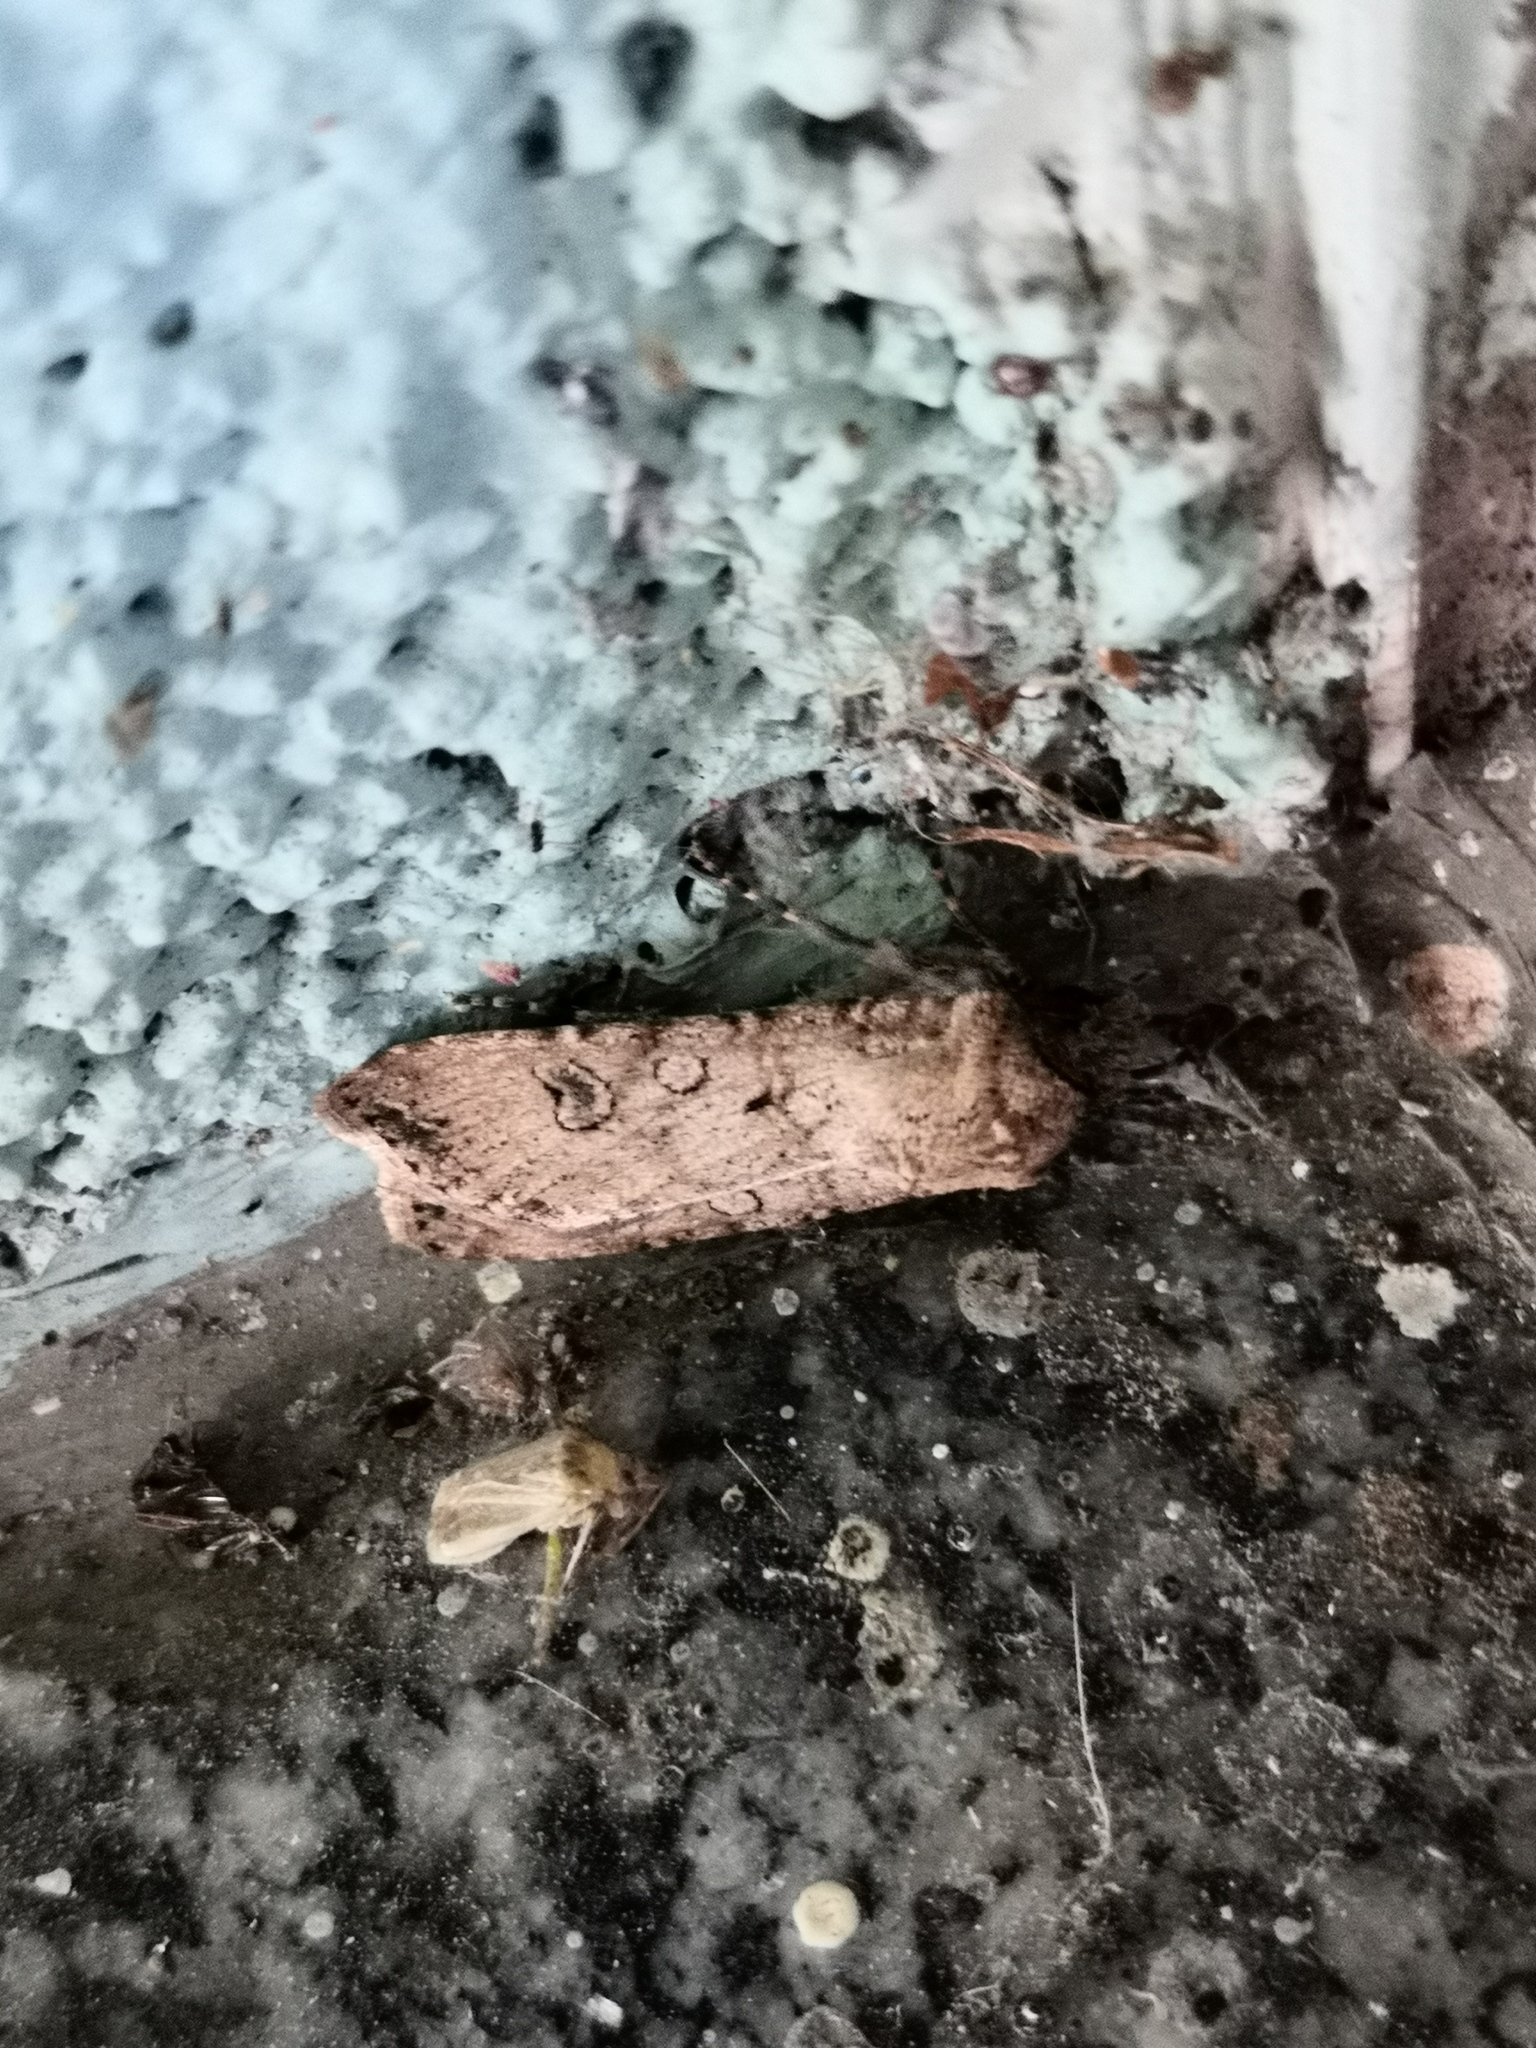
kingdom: Animalia
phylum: Arthropoda
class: Insecta
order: Lepidoptera
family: Noctuidae
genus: Agrotis
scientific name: Agrotis segetum
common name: Turnip moth
